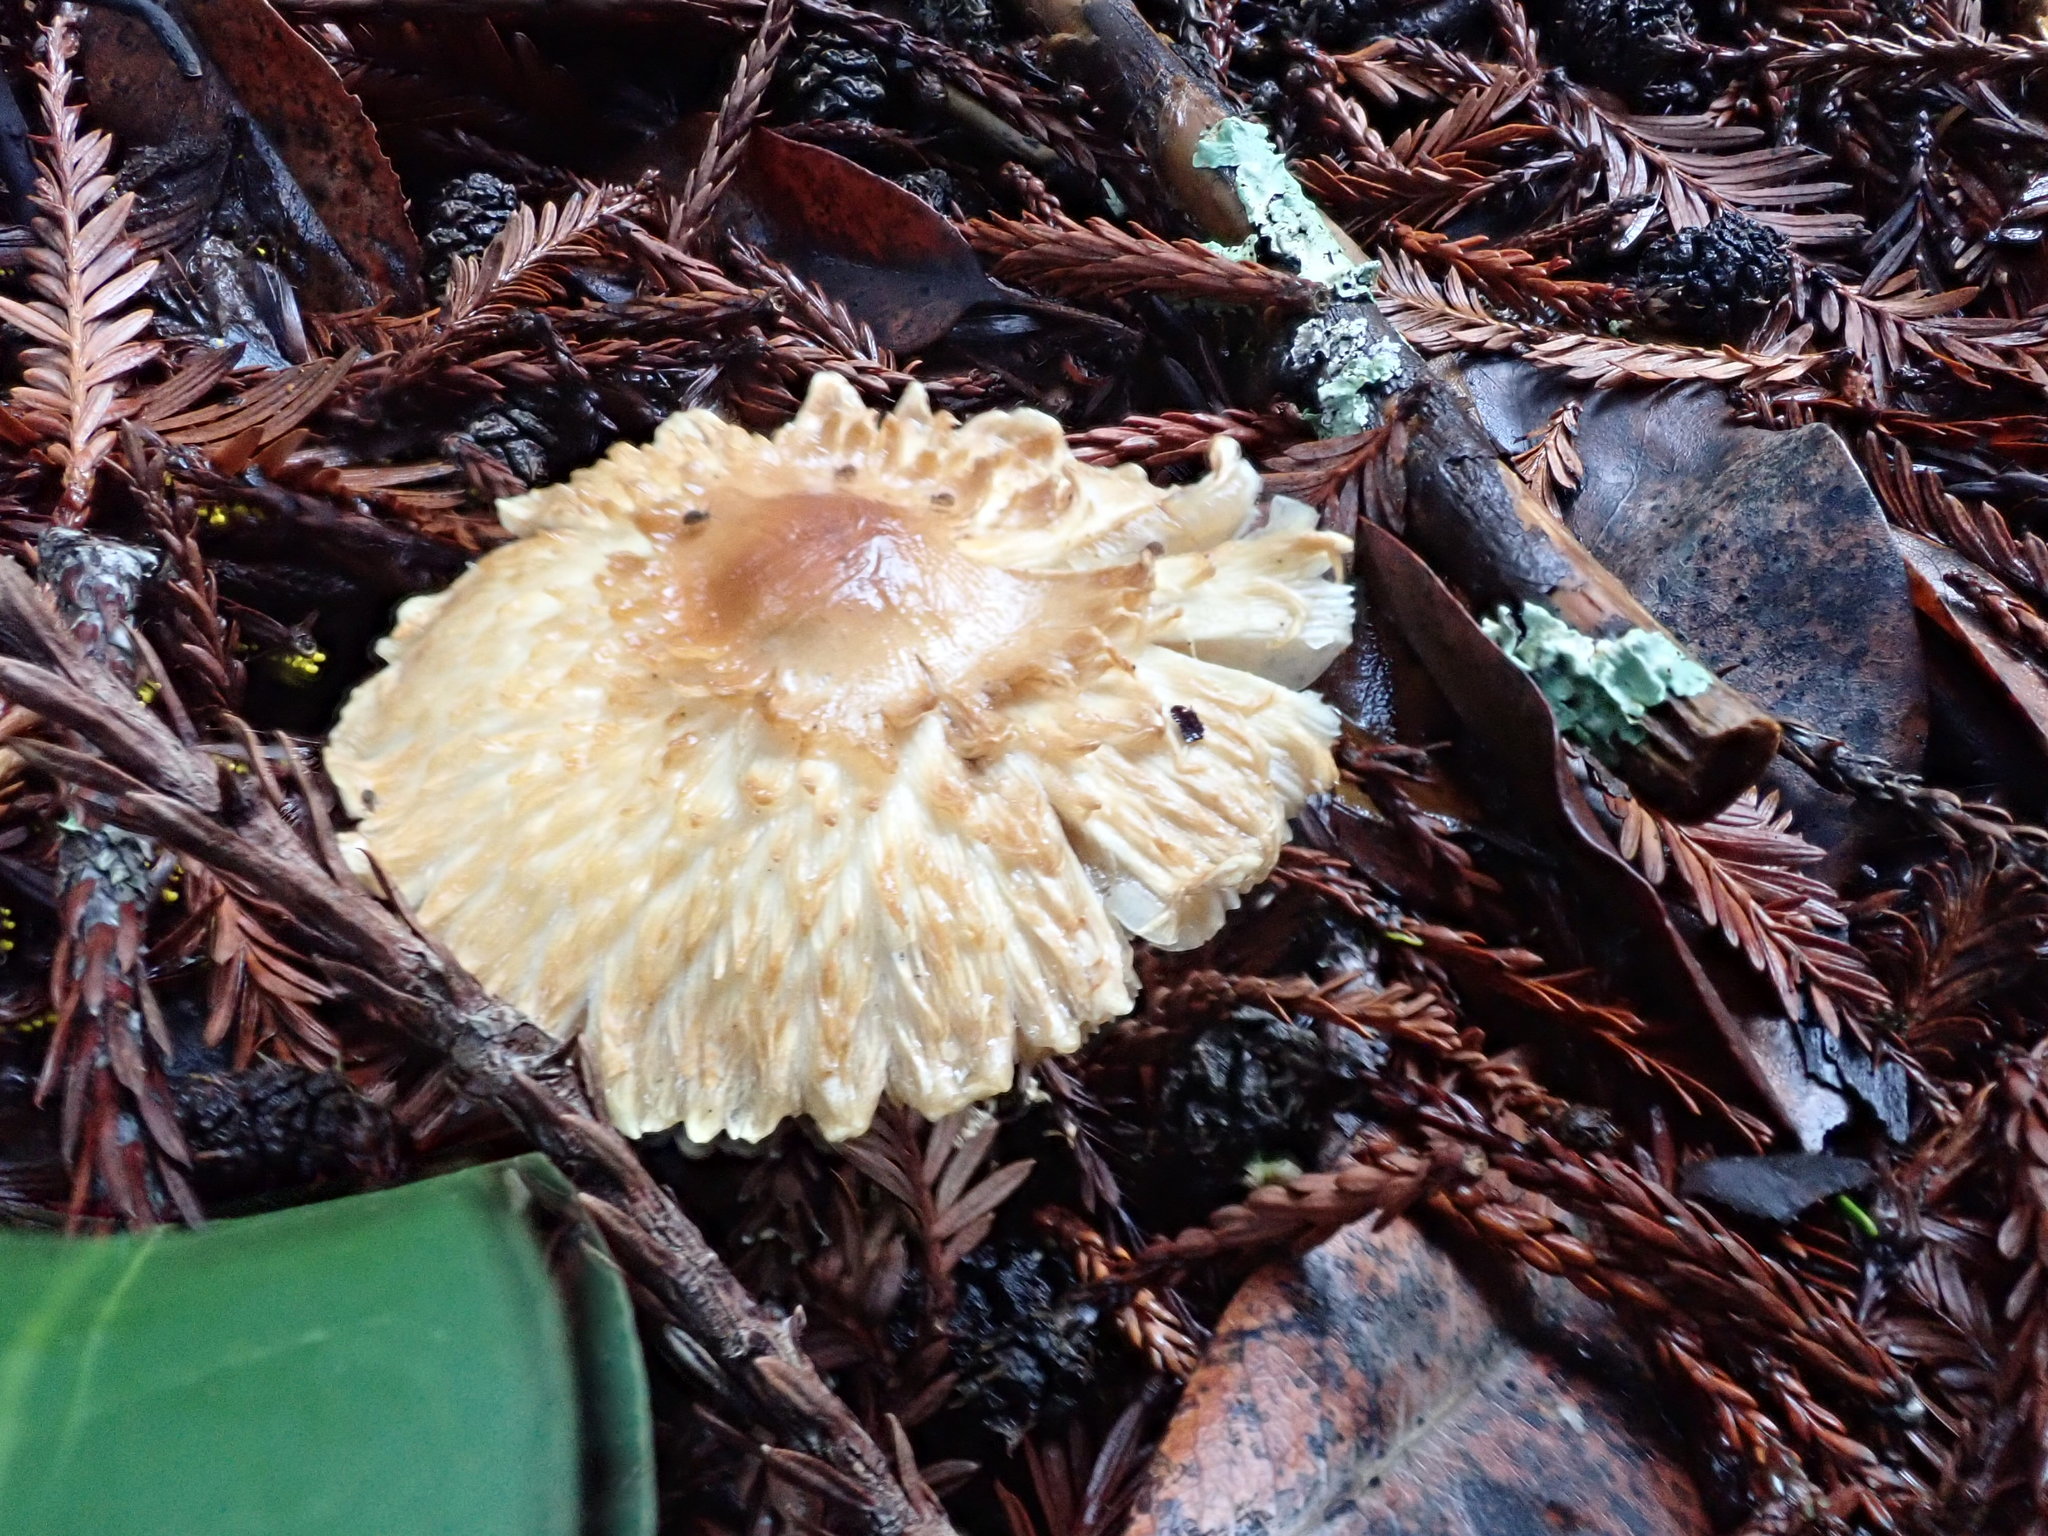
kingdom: Fungi
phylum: Basidiomycota
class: Agaricomycetes
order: Agaricales
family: Agaricaceae
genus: Lepiota
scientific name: Lepiota magnispora
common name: Yellowfoot dapperling
